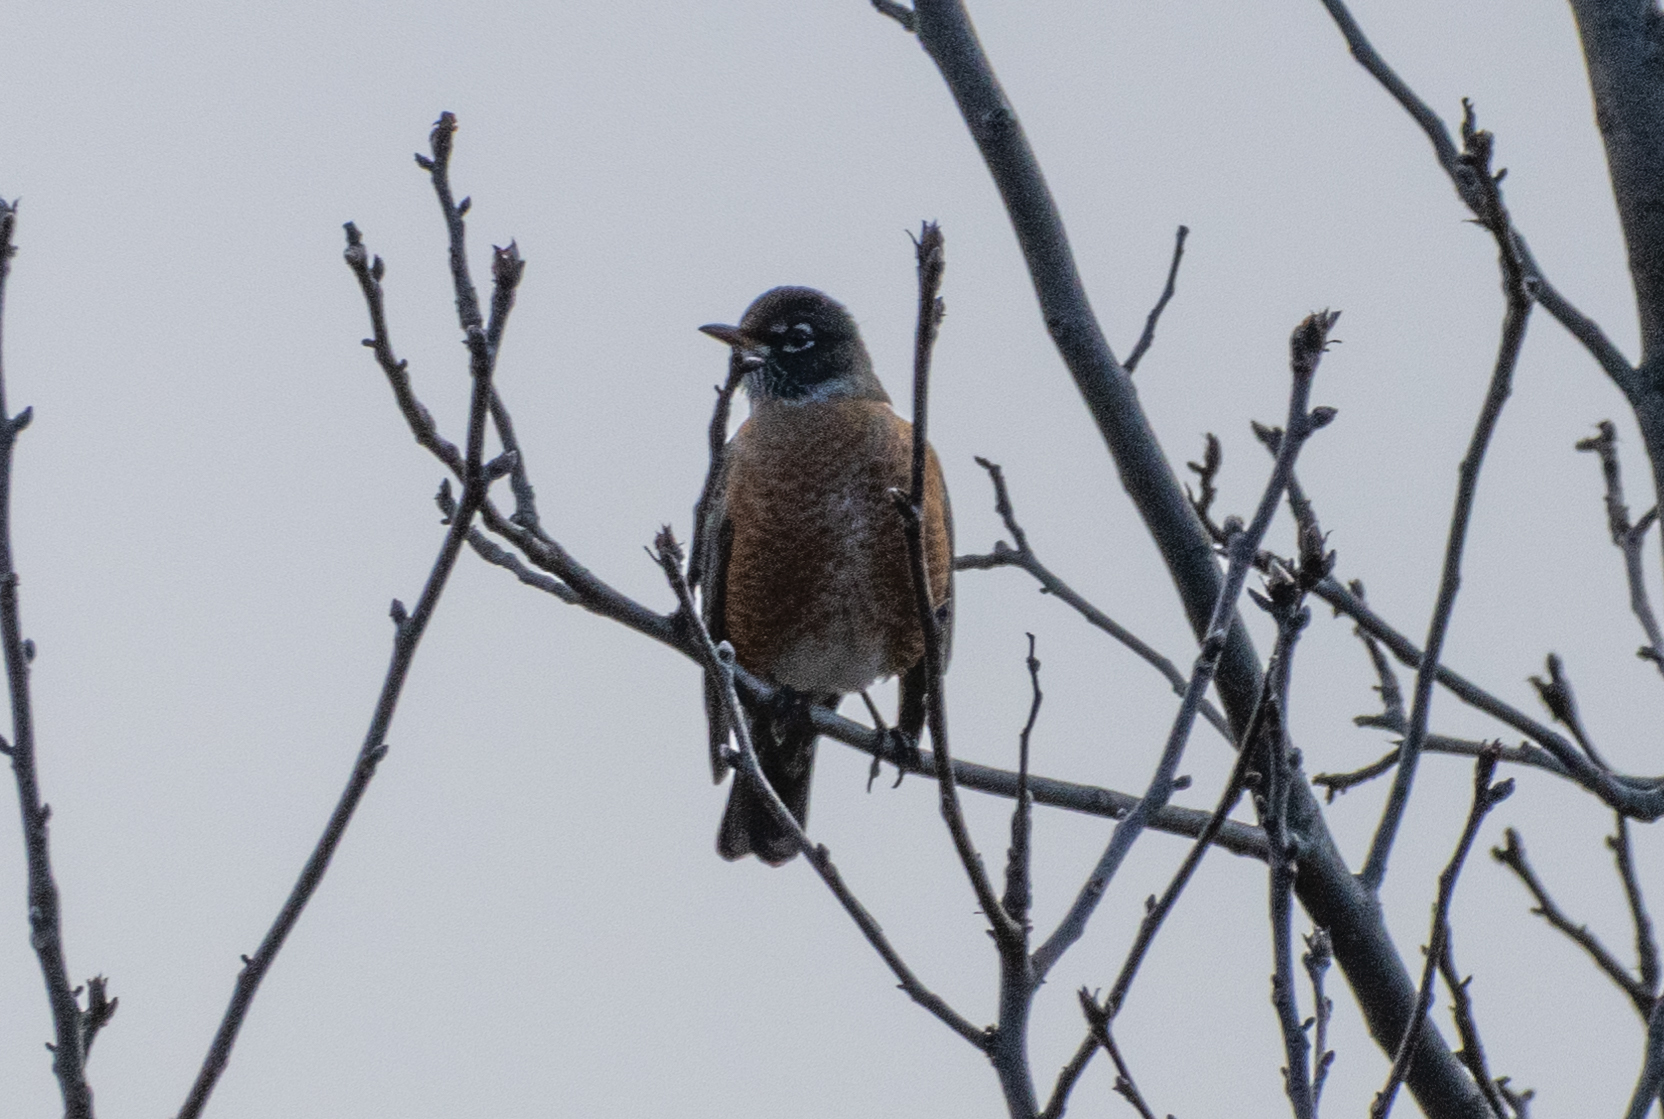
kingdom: Animalia
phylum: Chordata
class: Aves
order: Passeriformes
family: Turdidae
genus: Turdus
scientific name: Turdus migratorius
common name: American robin
